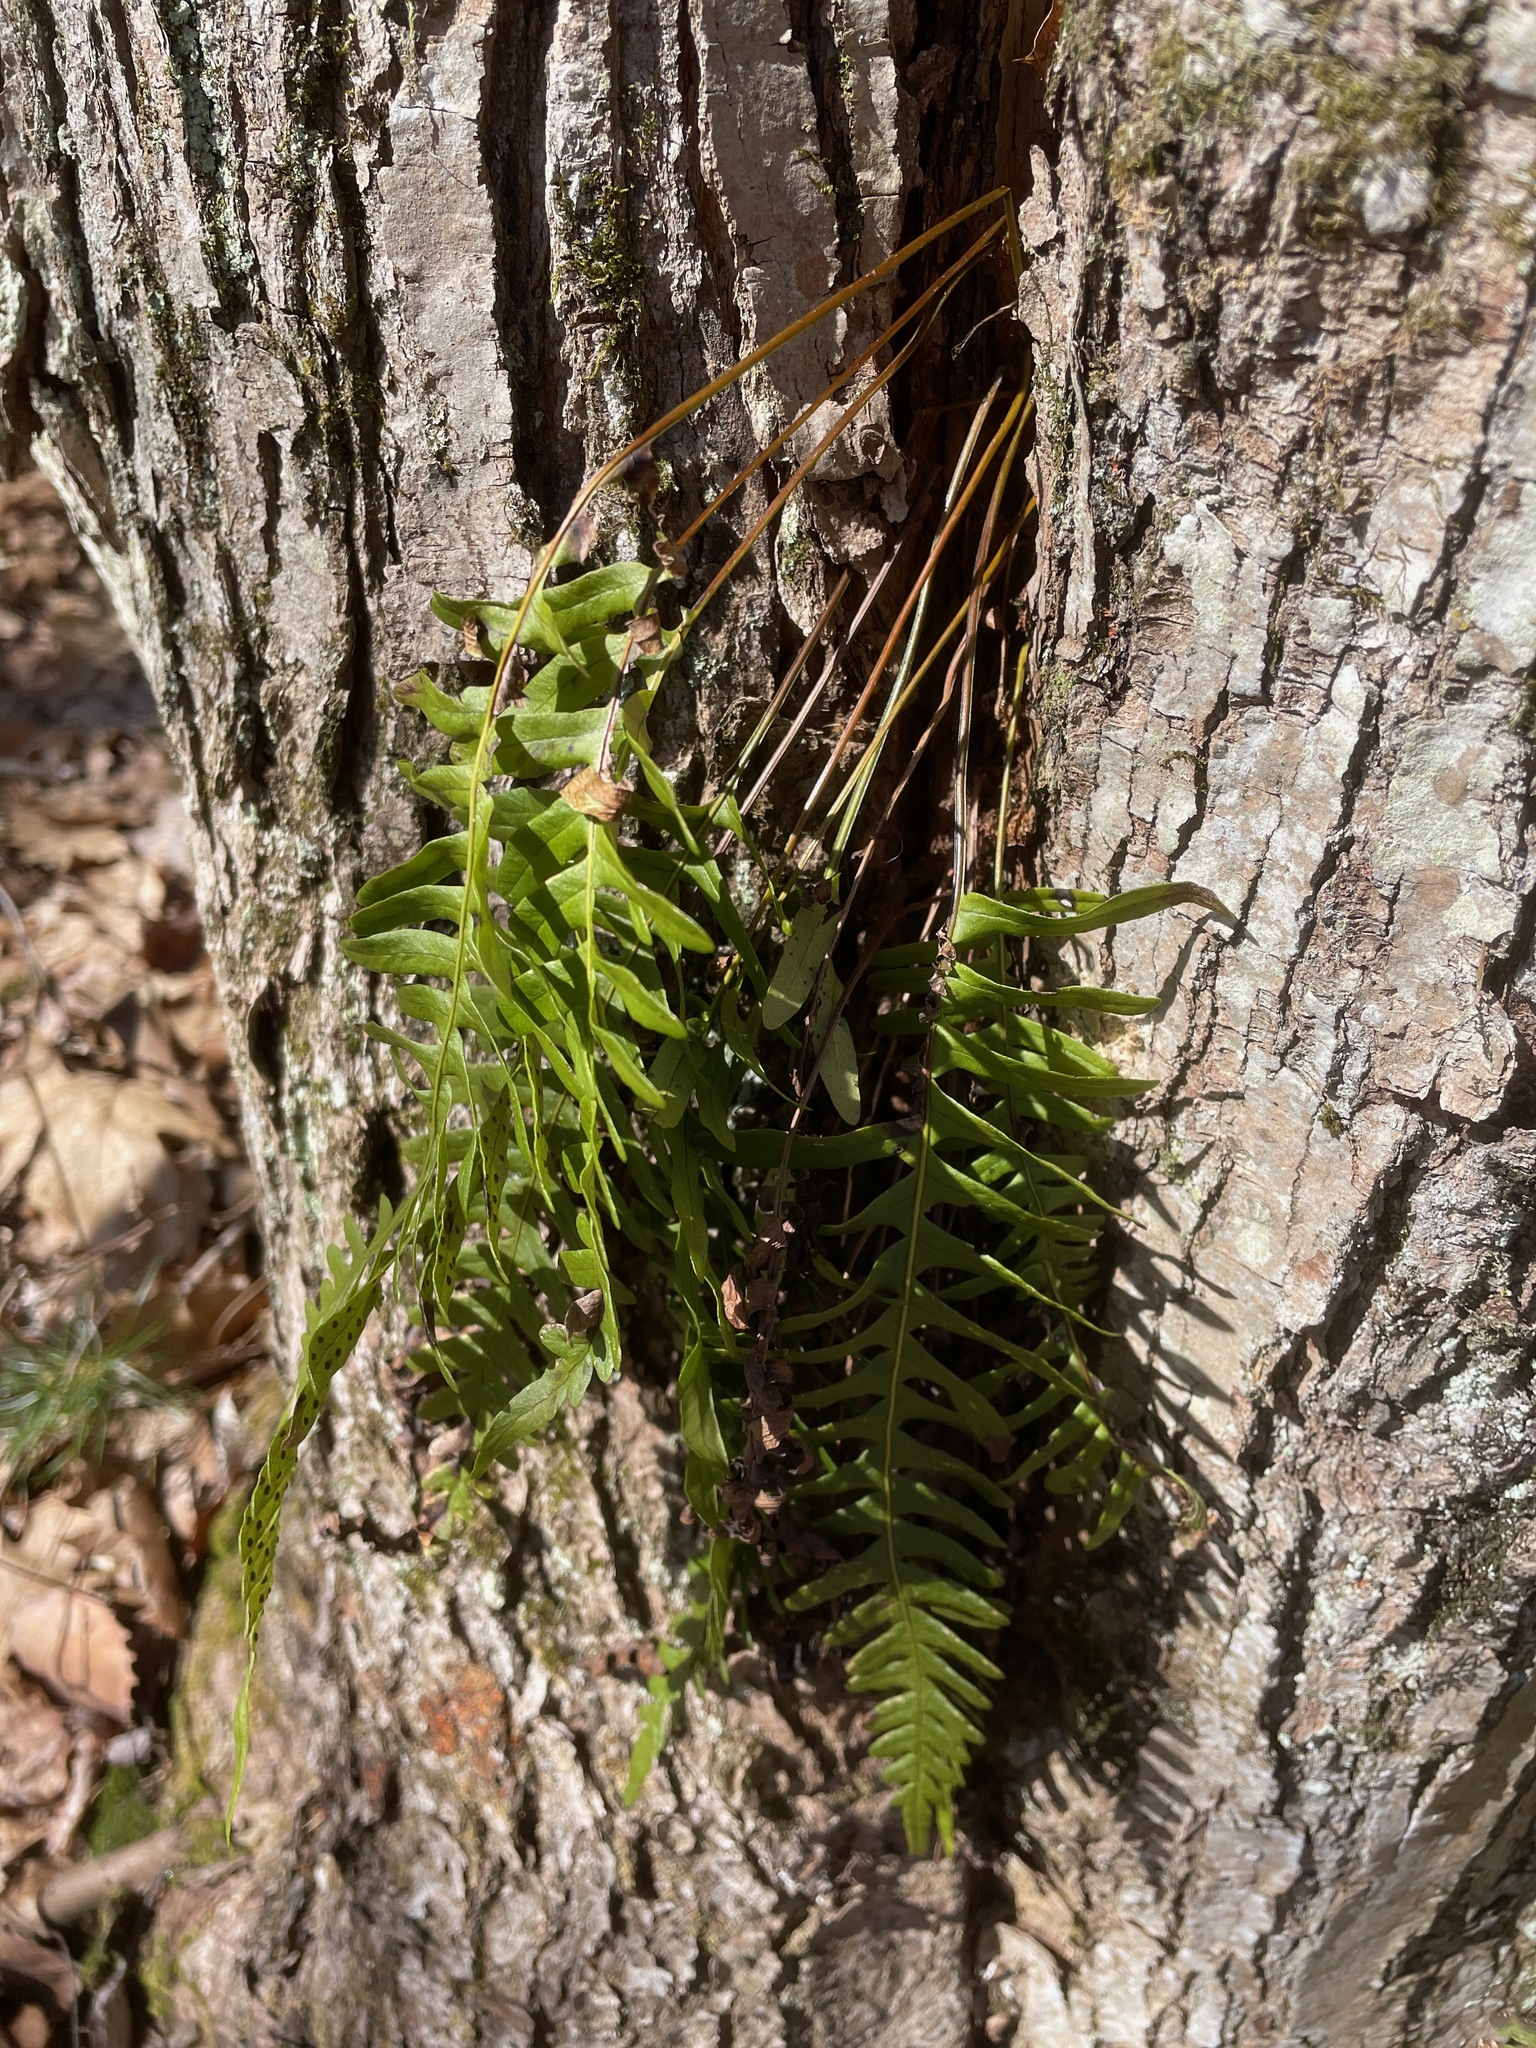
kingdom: Plantae
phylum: Tracheophyta
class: Polypodiopsida
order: Polypodiales
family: Polypodiaceae
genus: Polypodium
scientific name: Polypodium virginianum
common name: American wall fern
